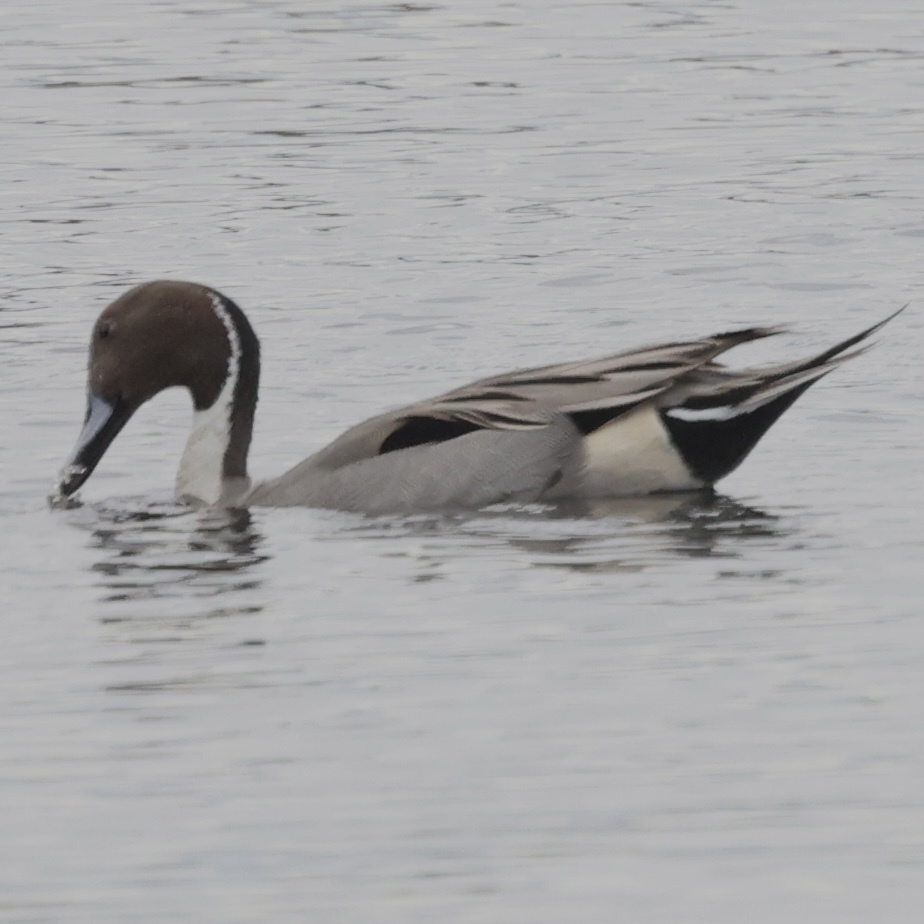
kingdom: Animalia
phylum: Chordata
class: Aves
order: Anseriformes
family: Anatidae
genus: Anas
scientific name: Anas acuta
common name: Northern pintail
